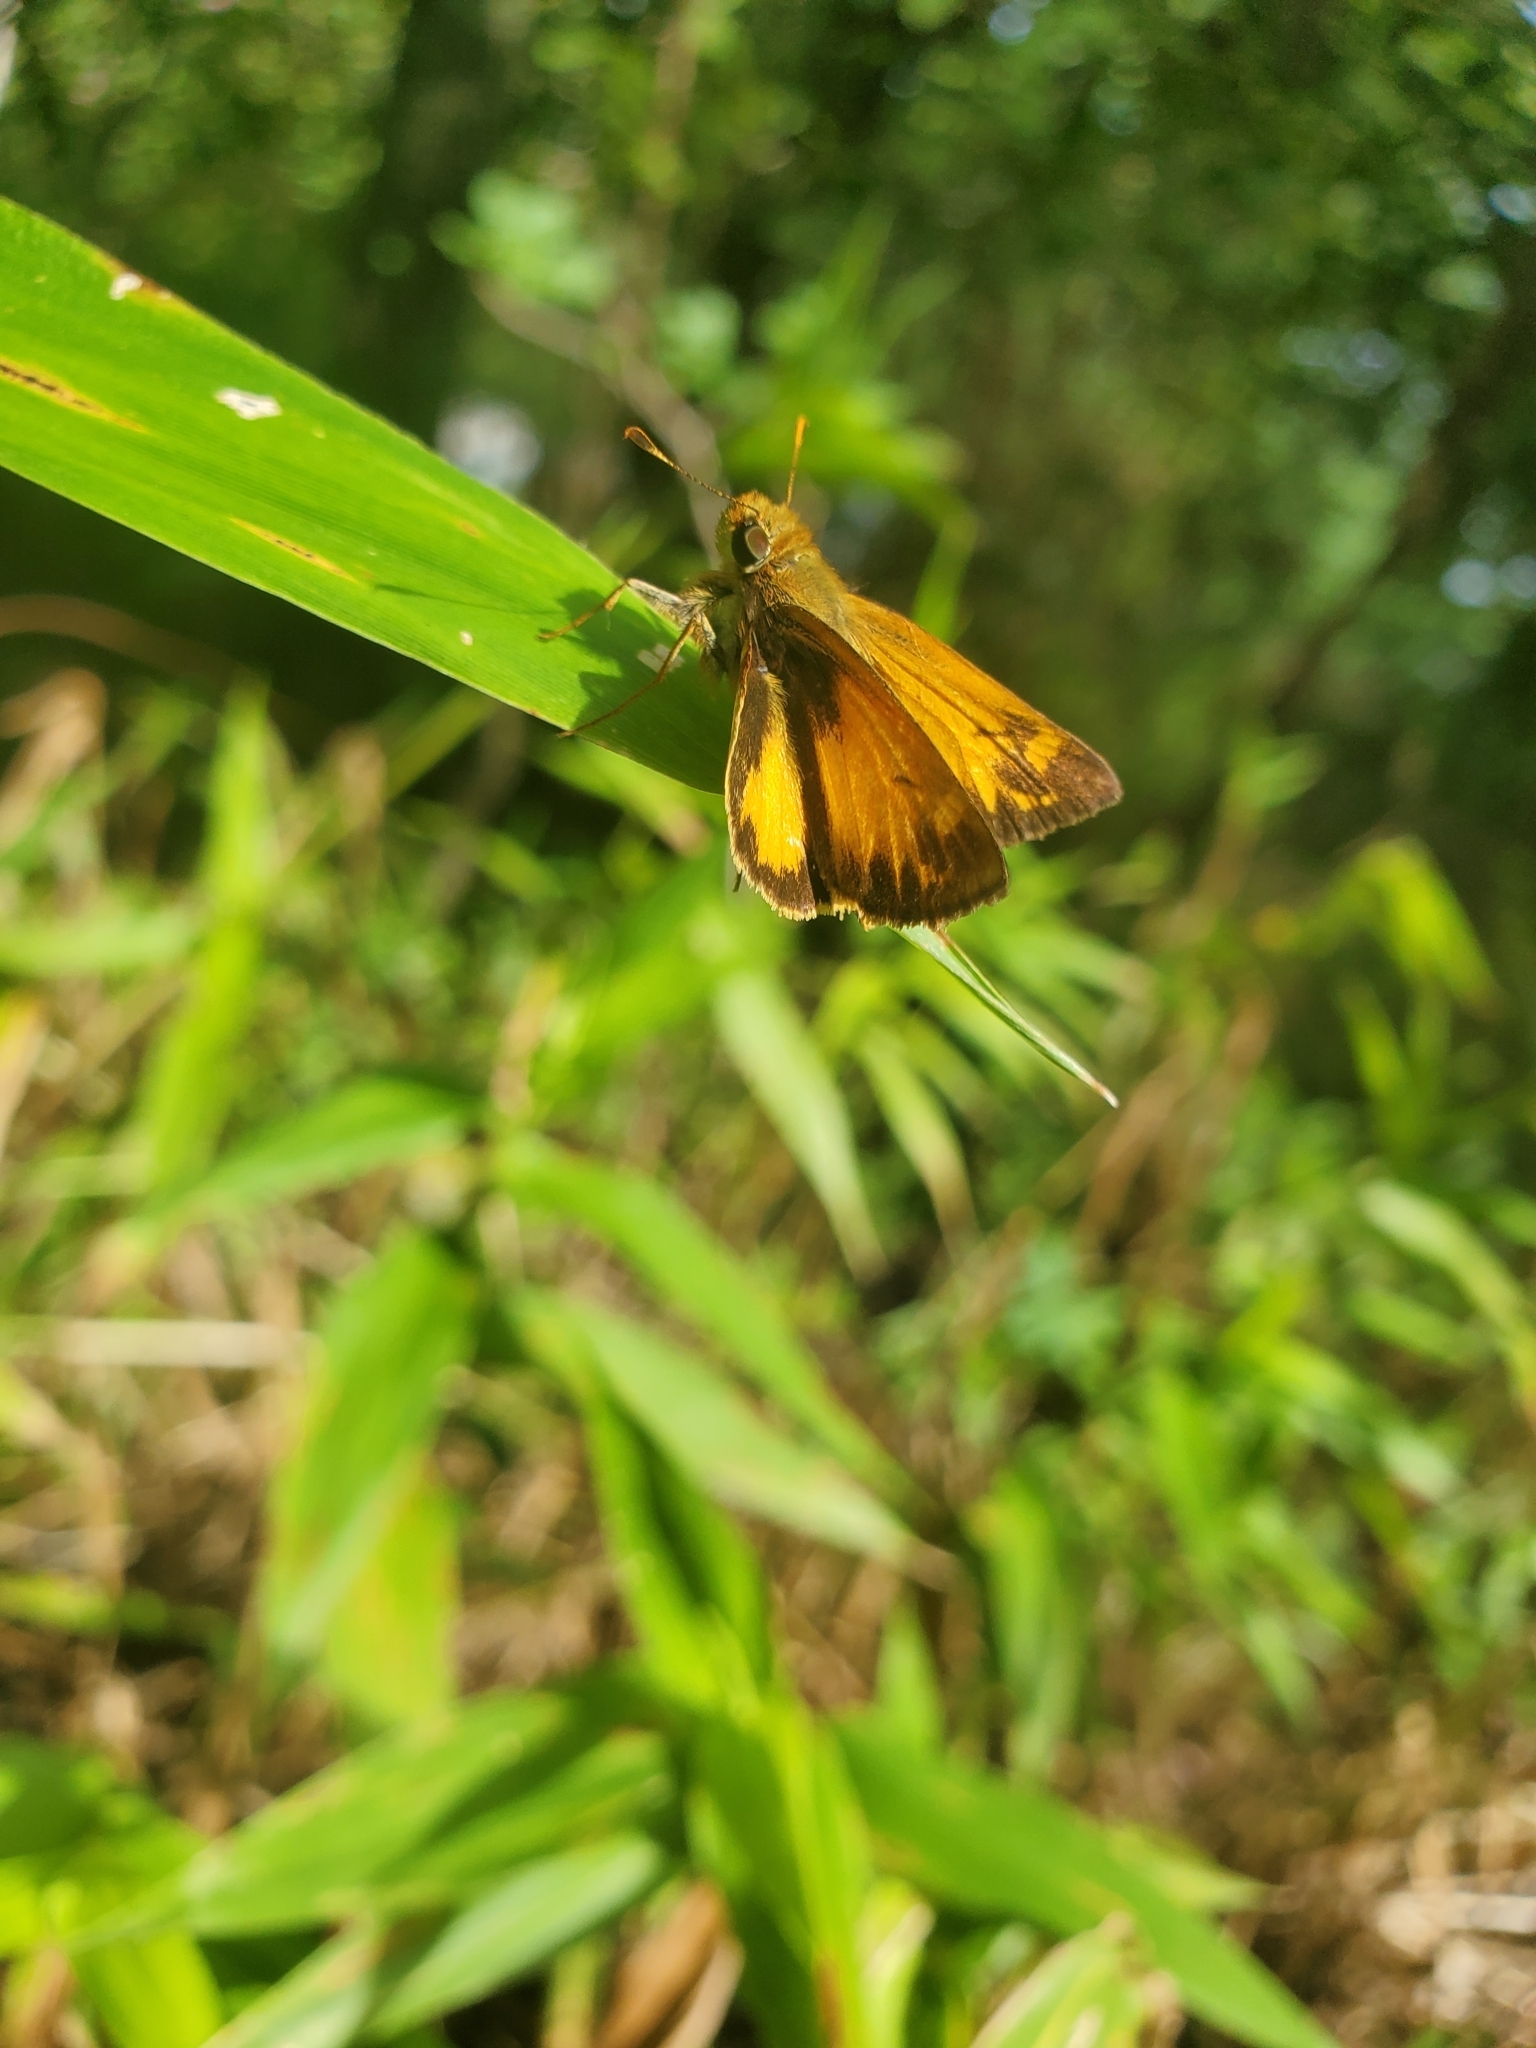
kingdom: Animalia
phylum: Arthropoda
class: Insecta
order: Lepidoptera
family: Hesperiidae
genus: Lon
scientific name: Lon zabulon
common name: Zabulon skipper
